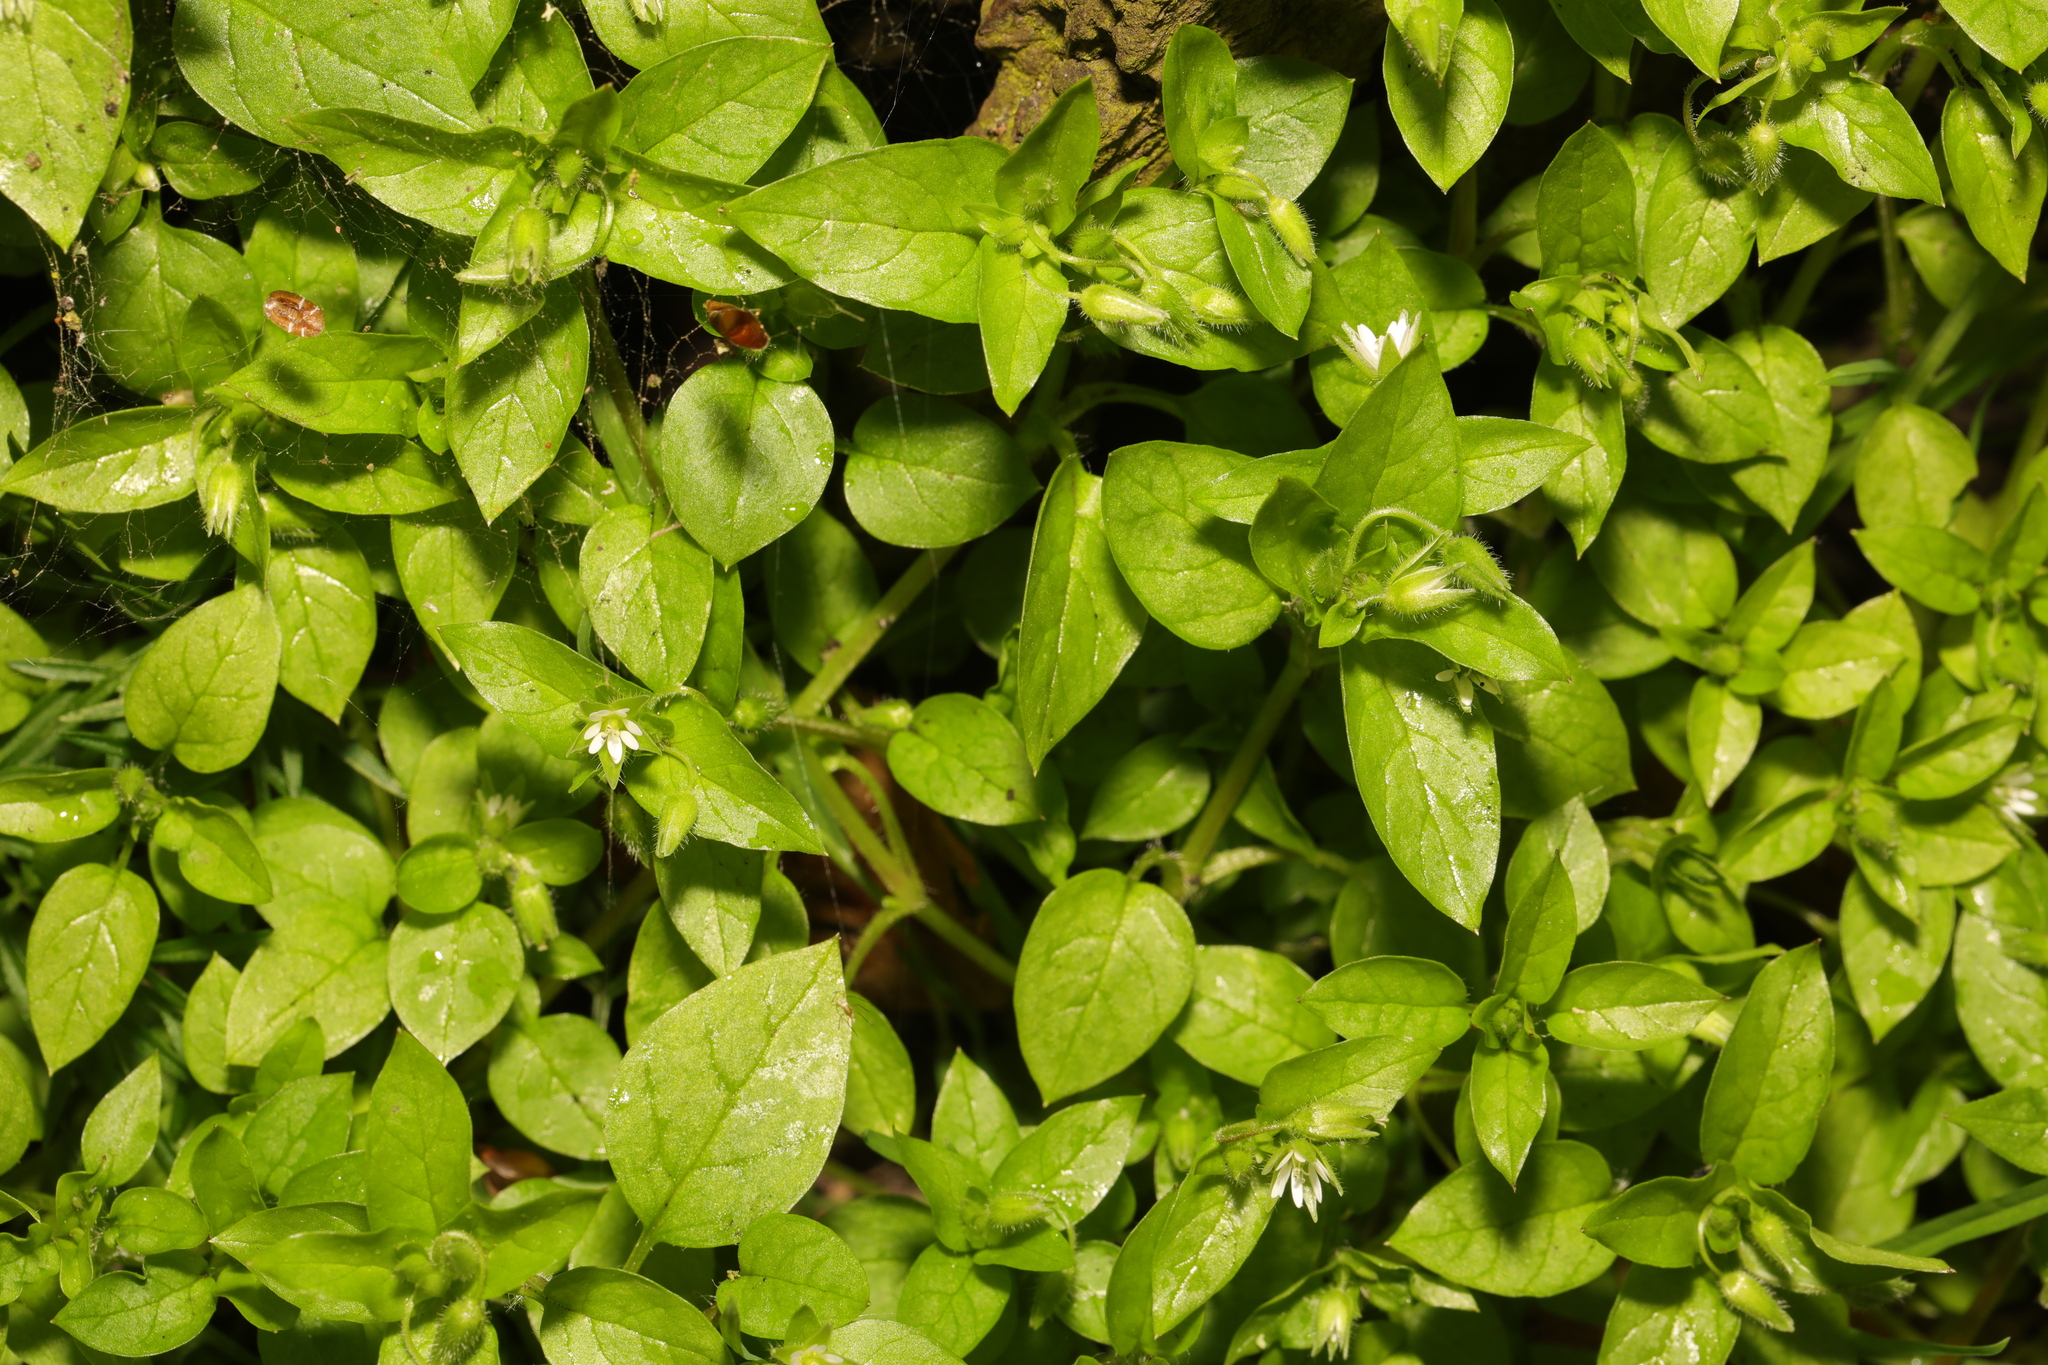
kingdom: Plantae
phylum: Tracheophyta
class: Magnoliopsida
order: Caryophyllales
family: Caryophyllaceae
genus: Stellaria
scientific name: Stellaria media
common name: Common chickweed
